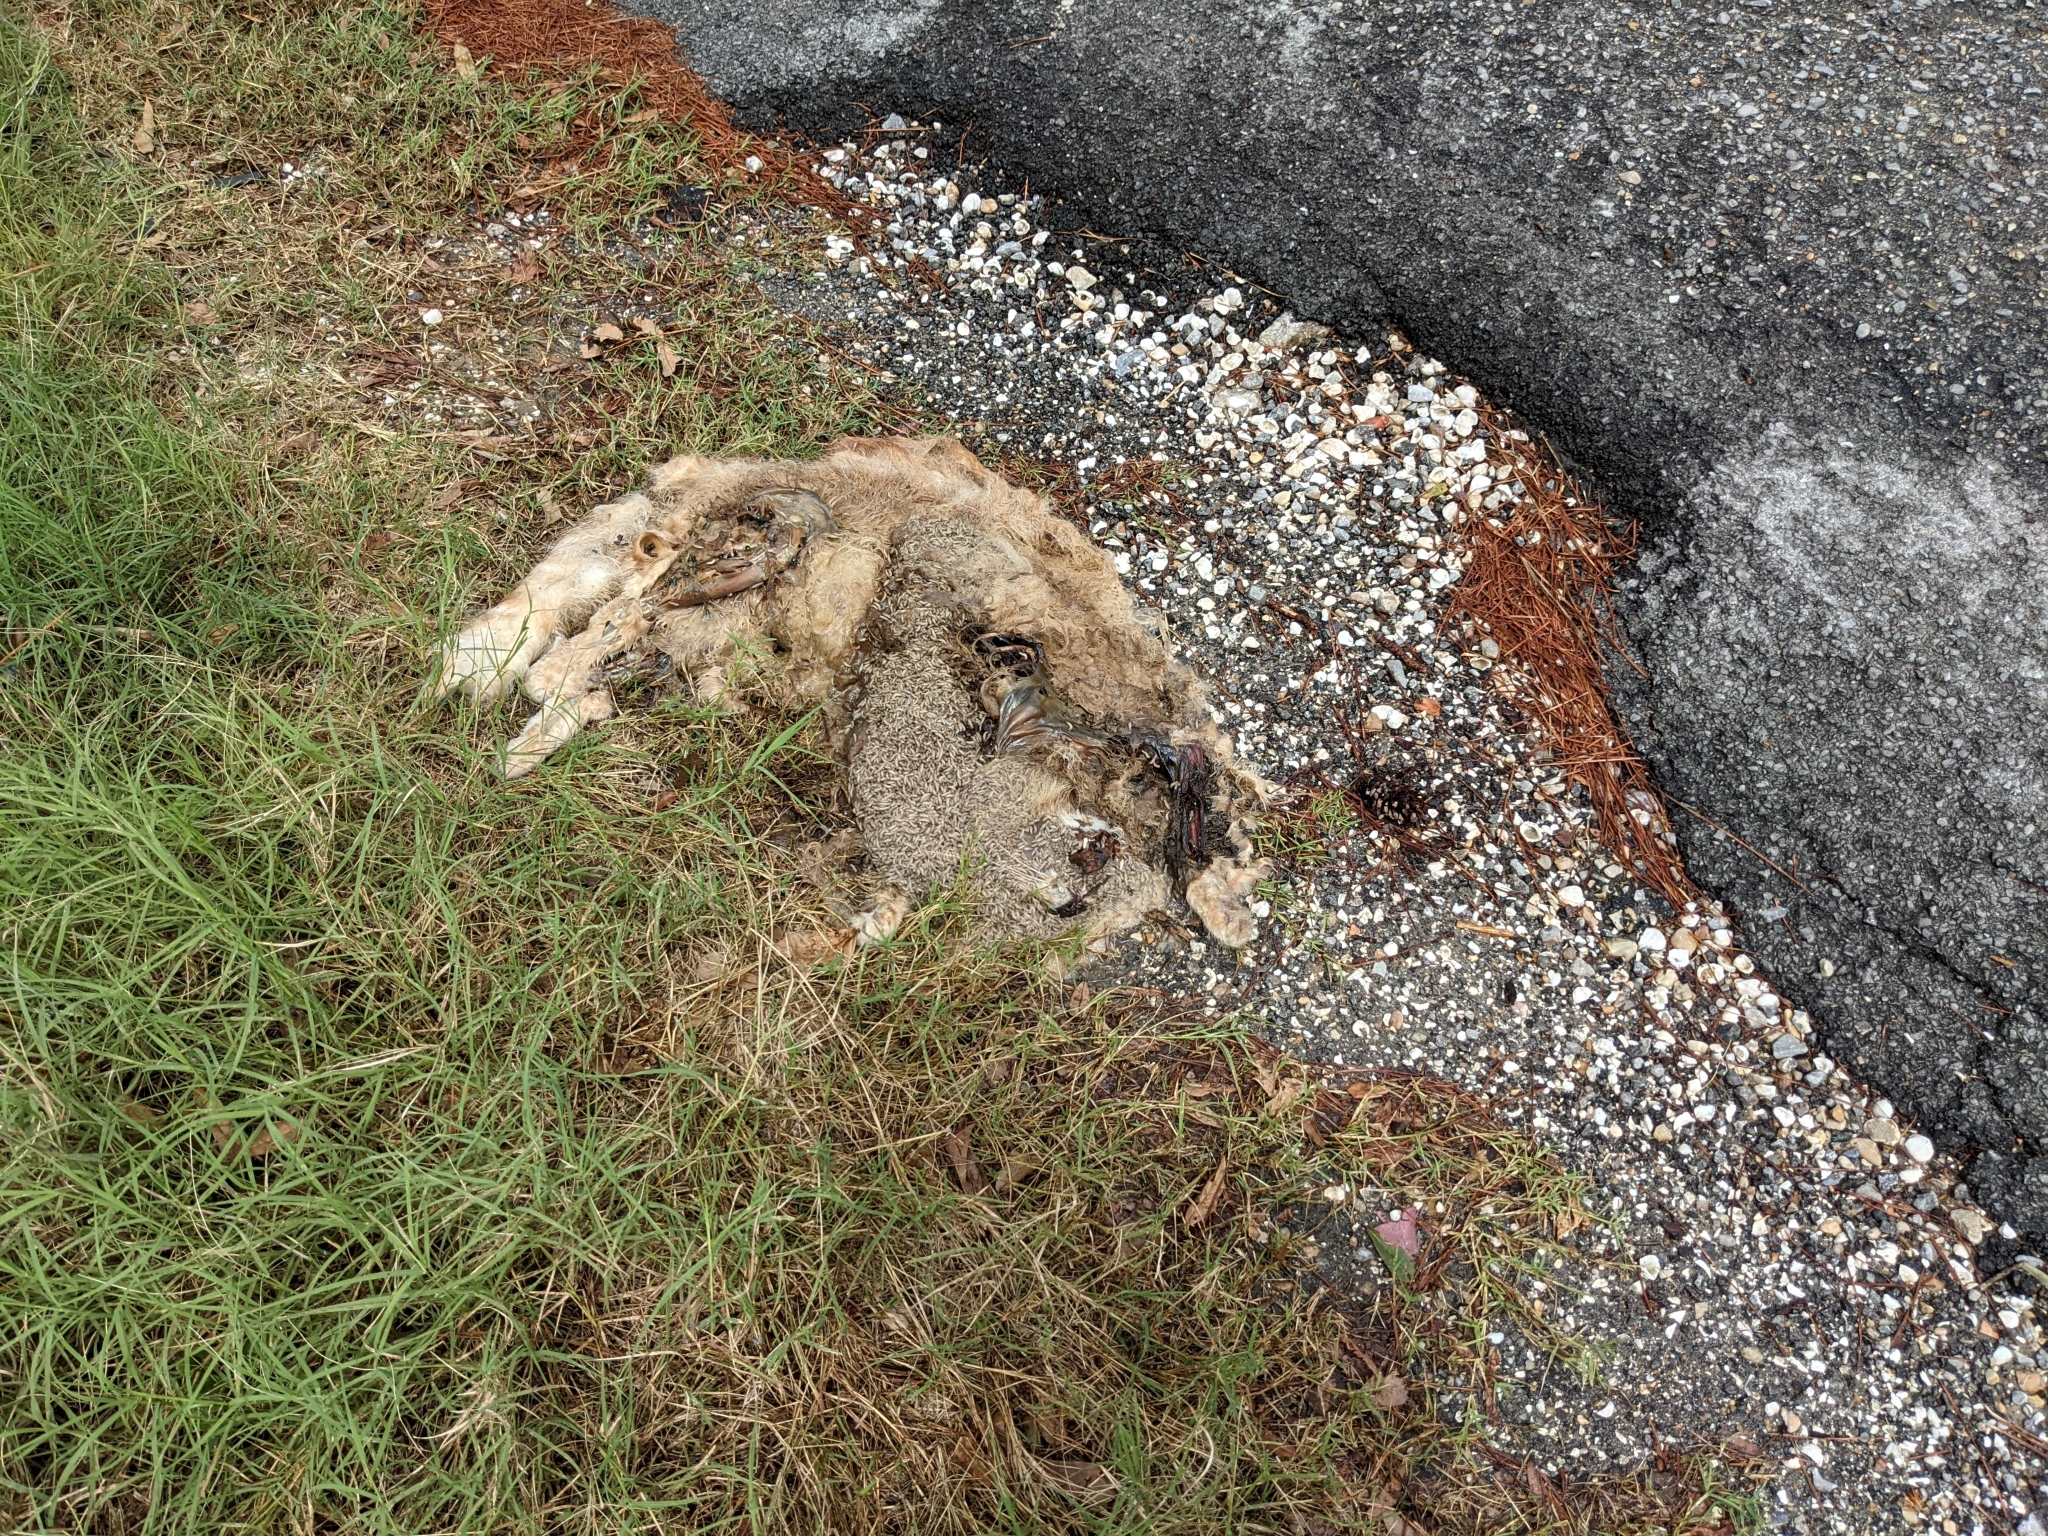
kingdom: Animalia
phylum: Chordata
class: Mammalia
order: Carnivora
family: Felidae
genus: Lynx
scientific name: Lynx rufus
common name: Bobcat
